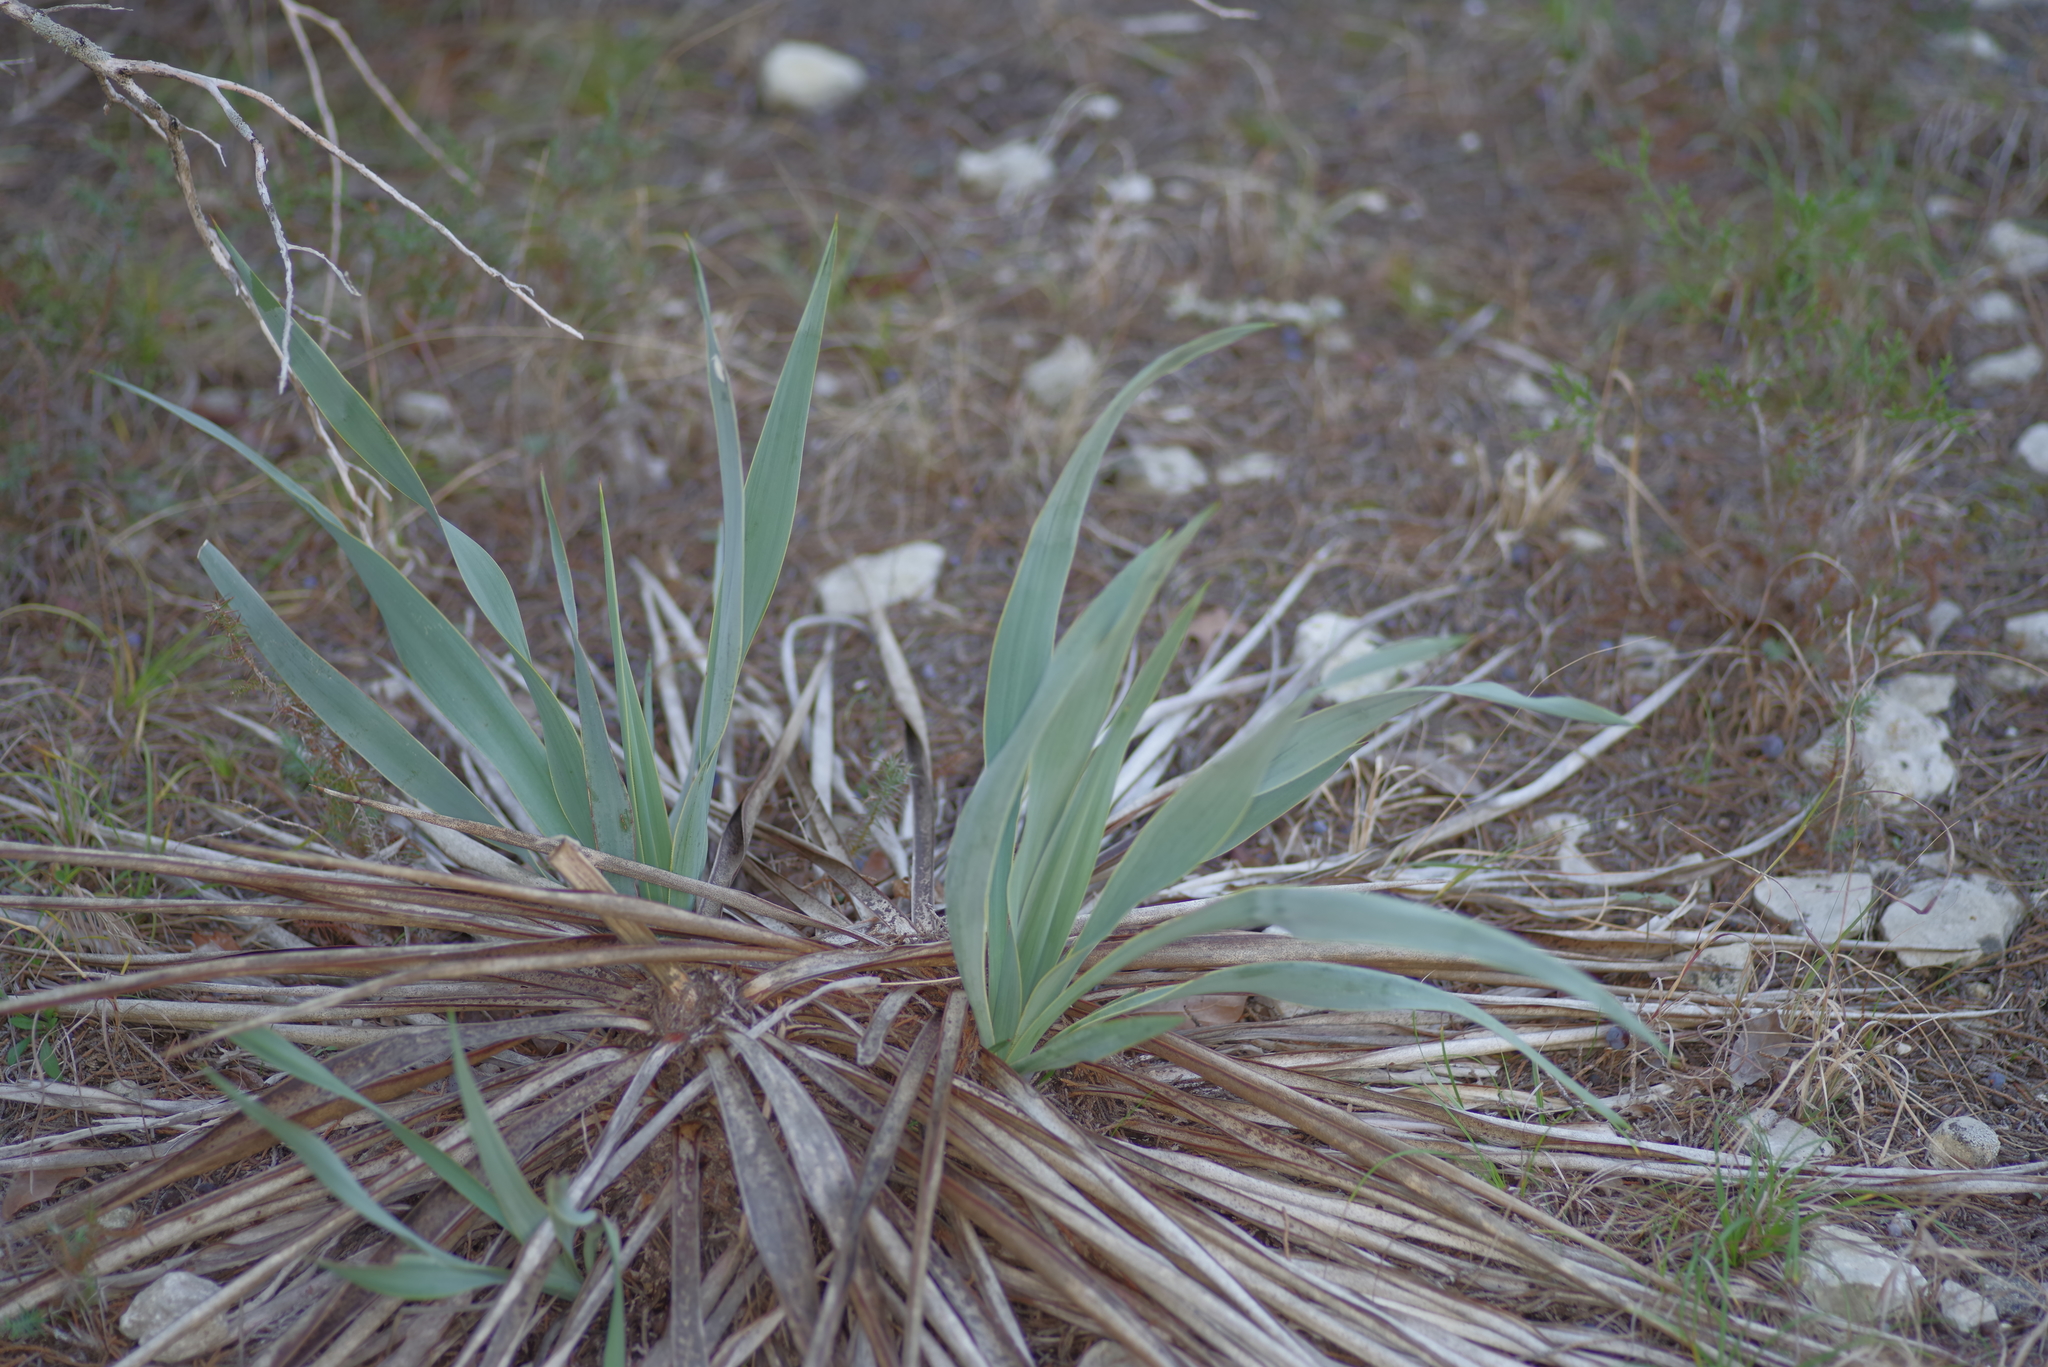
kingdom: Plantae
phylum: Tracheophyta
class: Liliopsida
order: Asparagales
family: Asparagaceae
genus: Yucca
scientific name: Yucca pallida
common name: Pale leaf yucca
